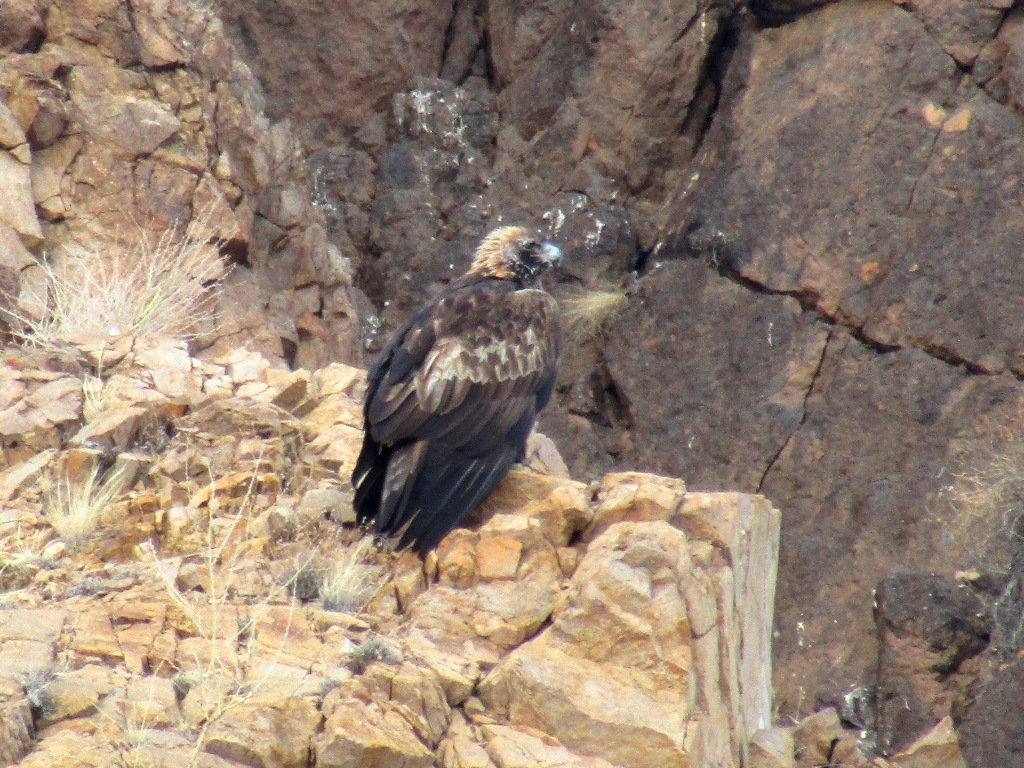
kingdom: Animalia
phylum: Chordata
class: Aves
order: Accipitriformes
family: Accipitridae
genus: Aquila
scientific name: Aquila chrysaetos
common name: Golden eagle
